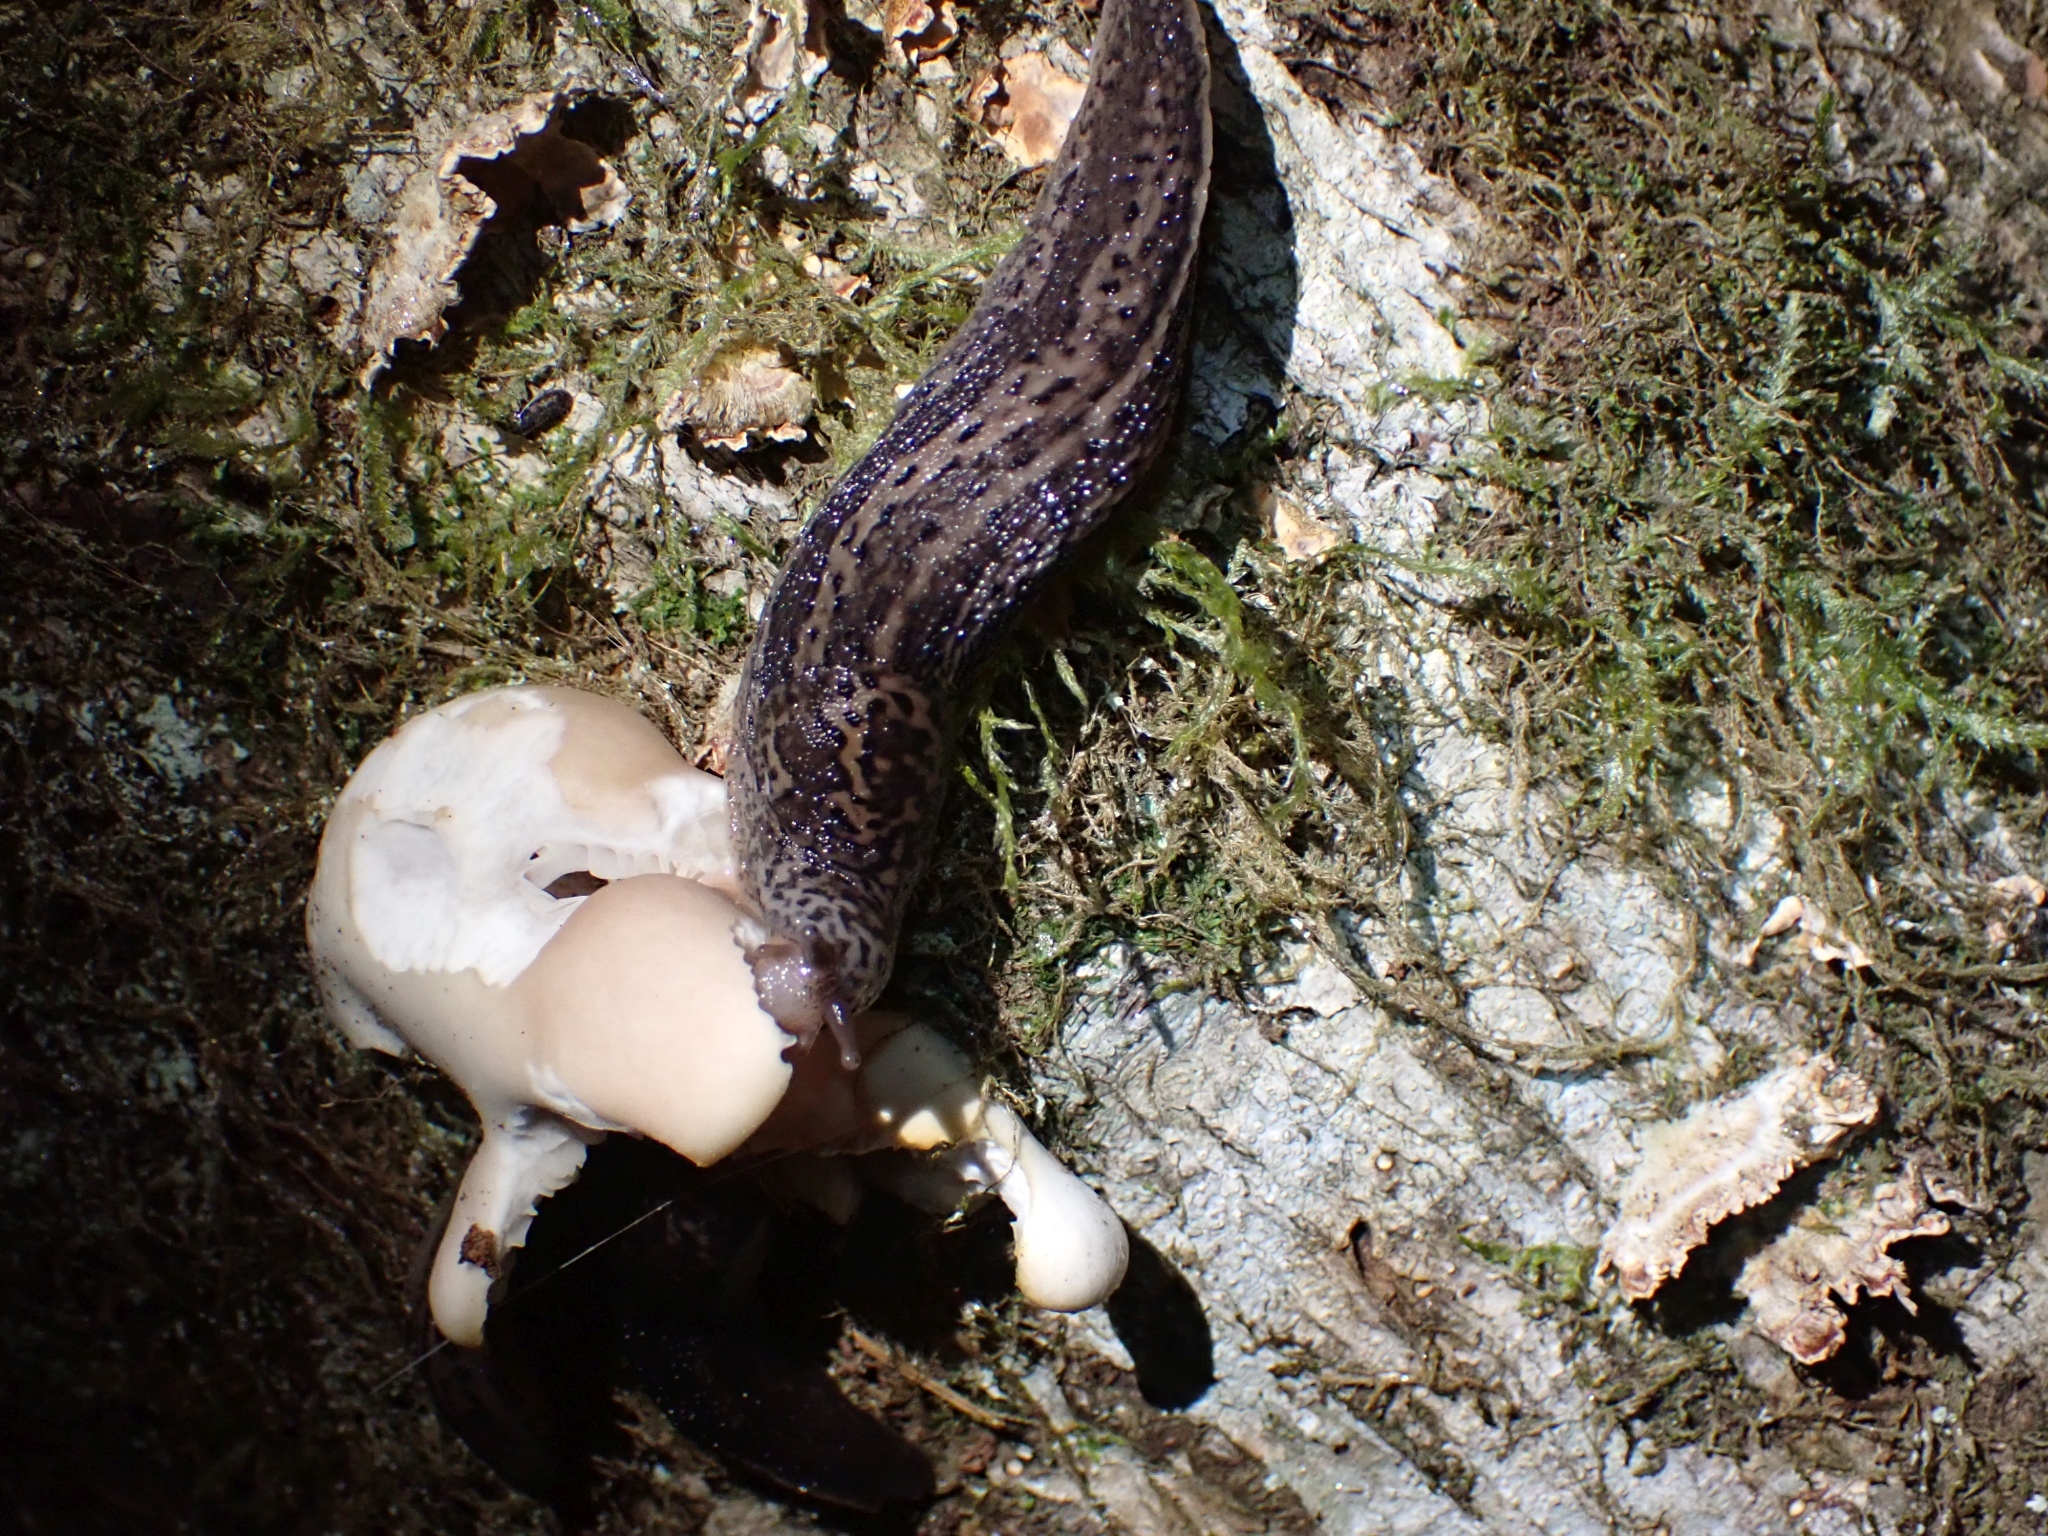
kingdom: Animalia
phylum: Mollusca
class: Gastropoda
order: Stylommatophora
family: Limacidae
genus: Limax
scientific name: Limax maximus
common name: Great grey slug
